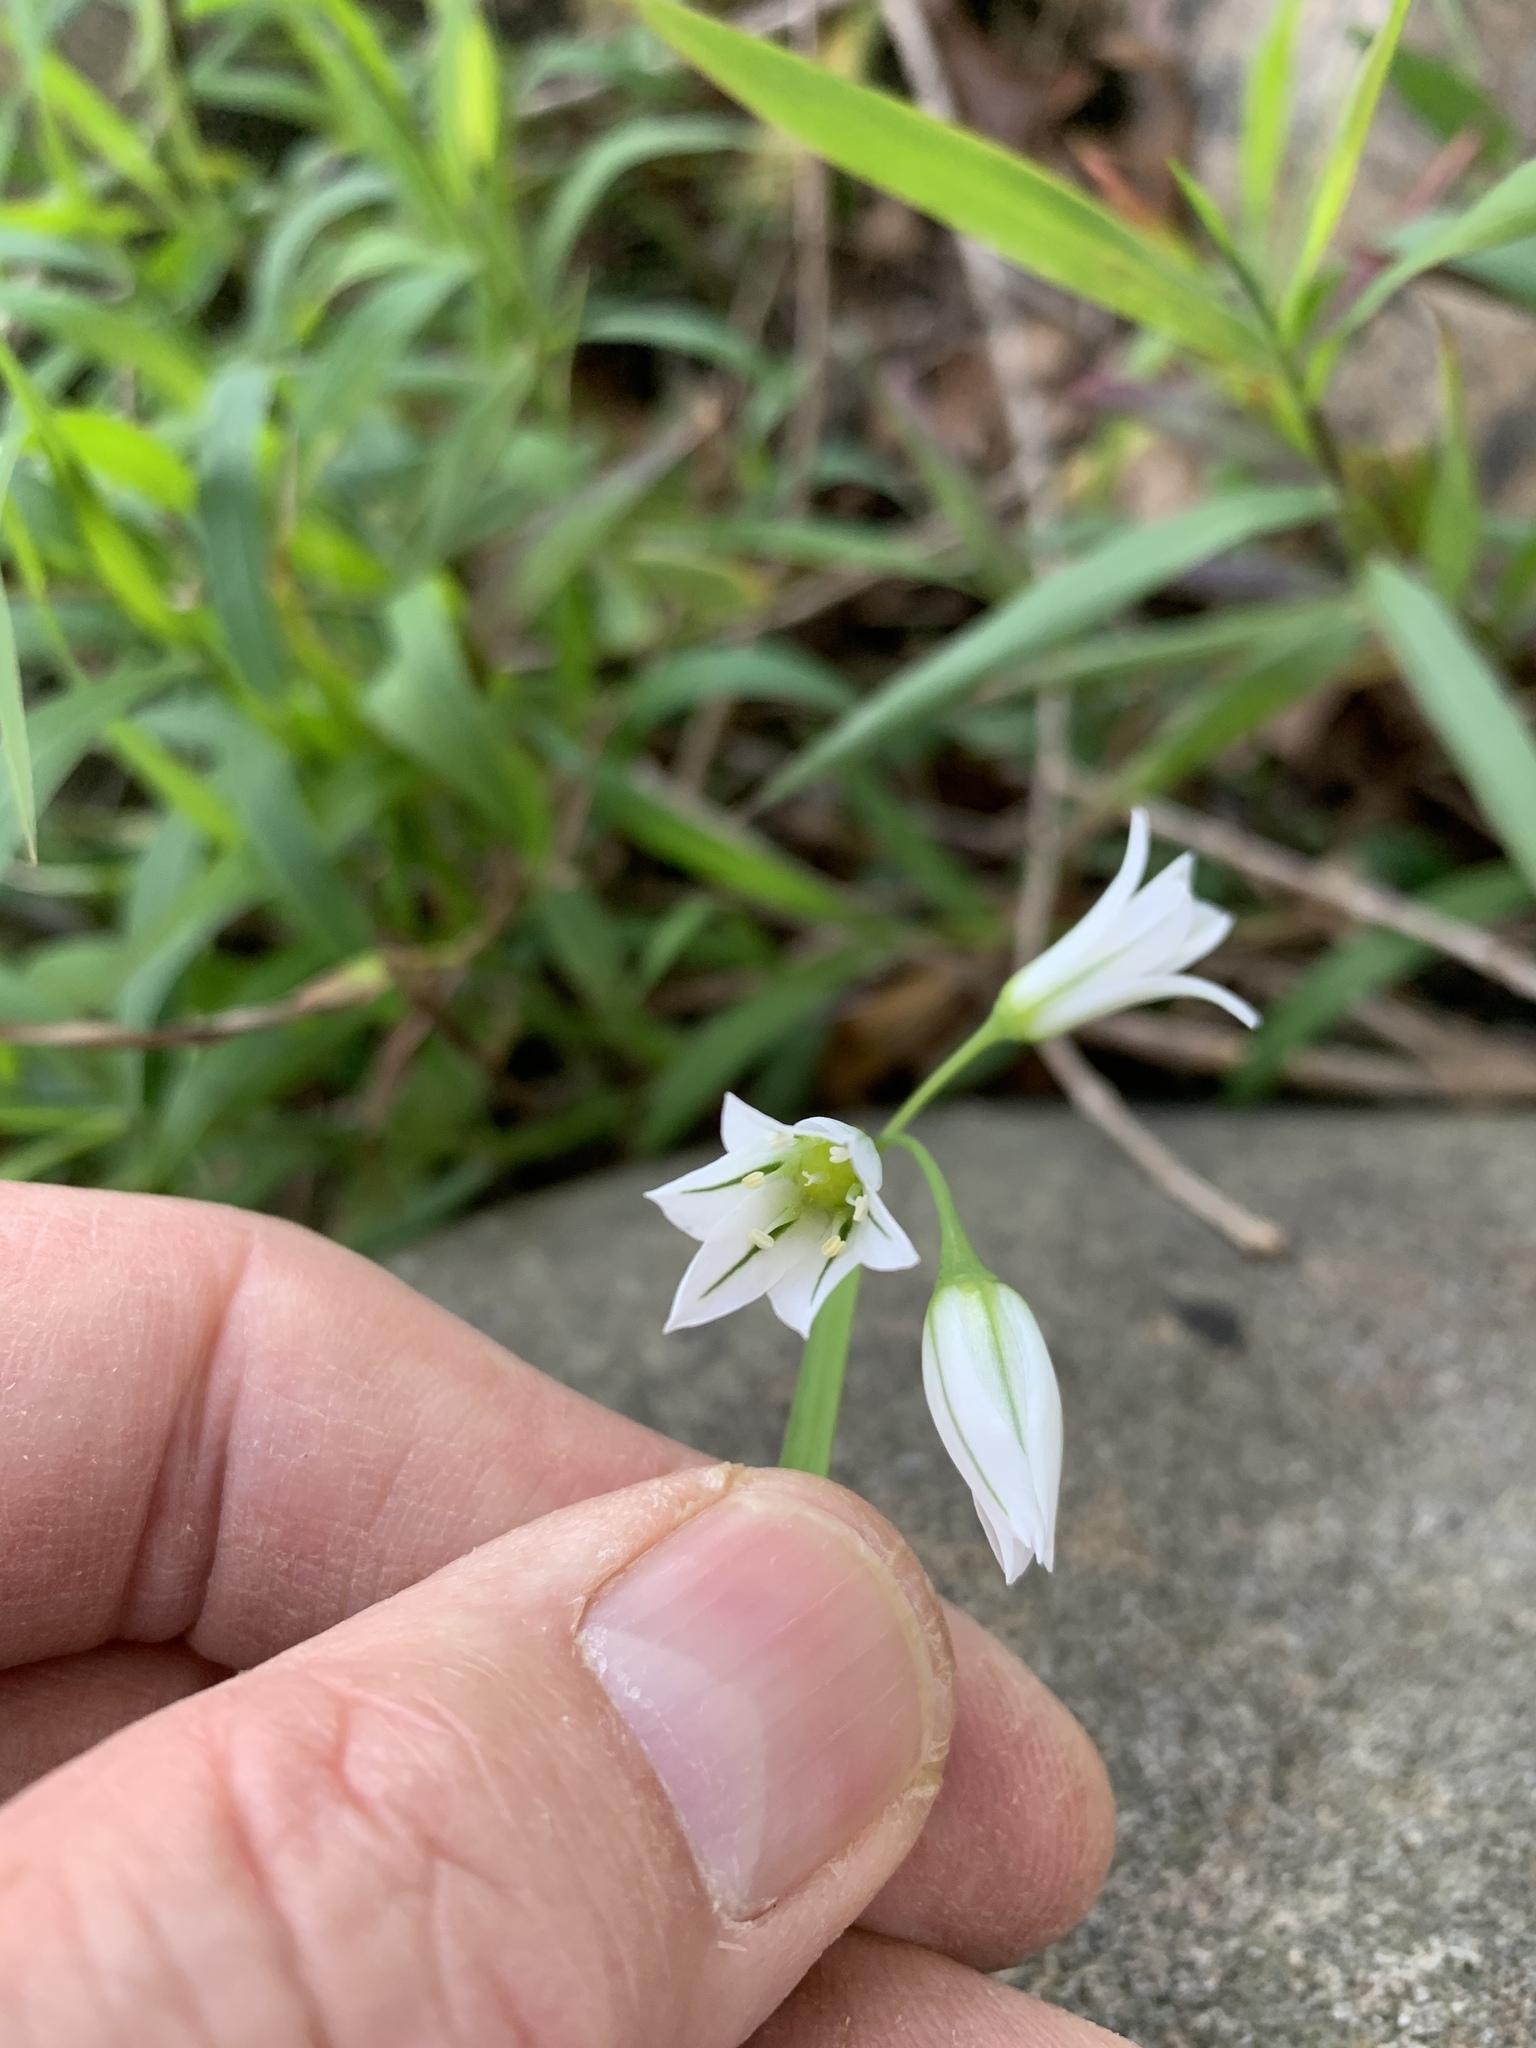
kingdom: Plantae
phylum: Tracheophyta
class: Liliopsida
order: Asparagales
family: Amaryllidaceae
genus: Allium
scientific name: Allium triquetrum
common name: Three-cornered garlic
